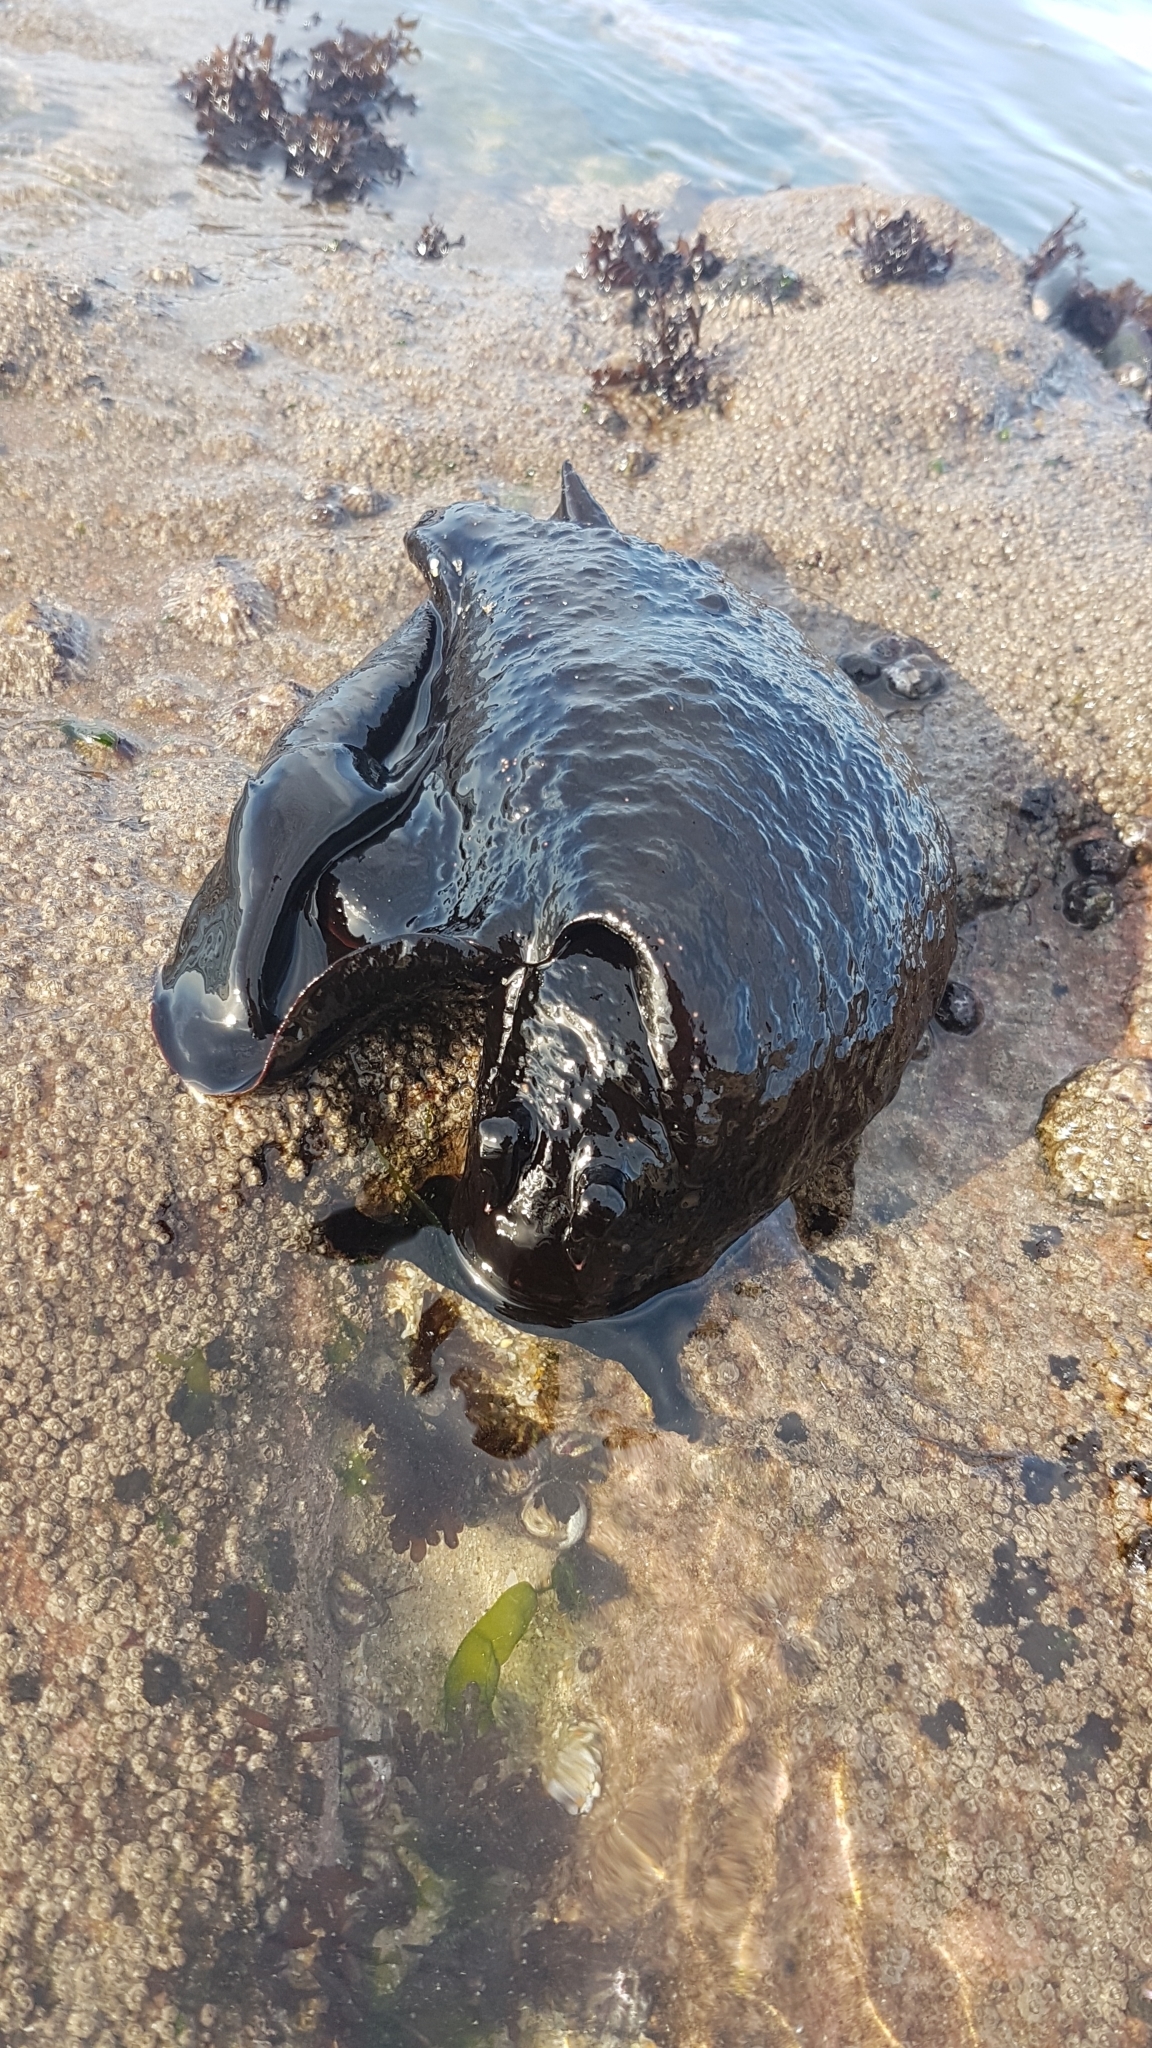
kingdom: Animalia
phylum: Mollusca
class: Gastropoda
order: Aplysiida
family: Aplysiidae
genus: Aplysia
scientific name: Aplysia fasciata
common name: Banded sea hare
